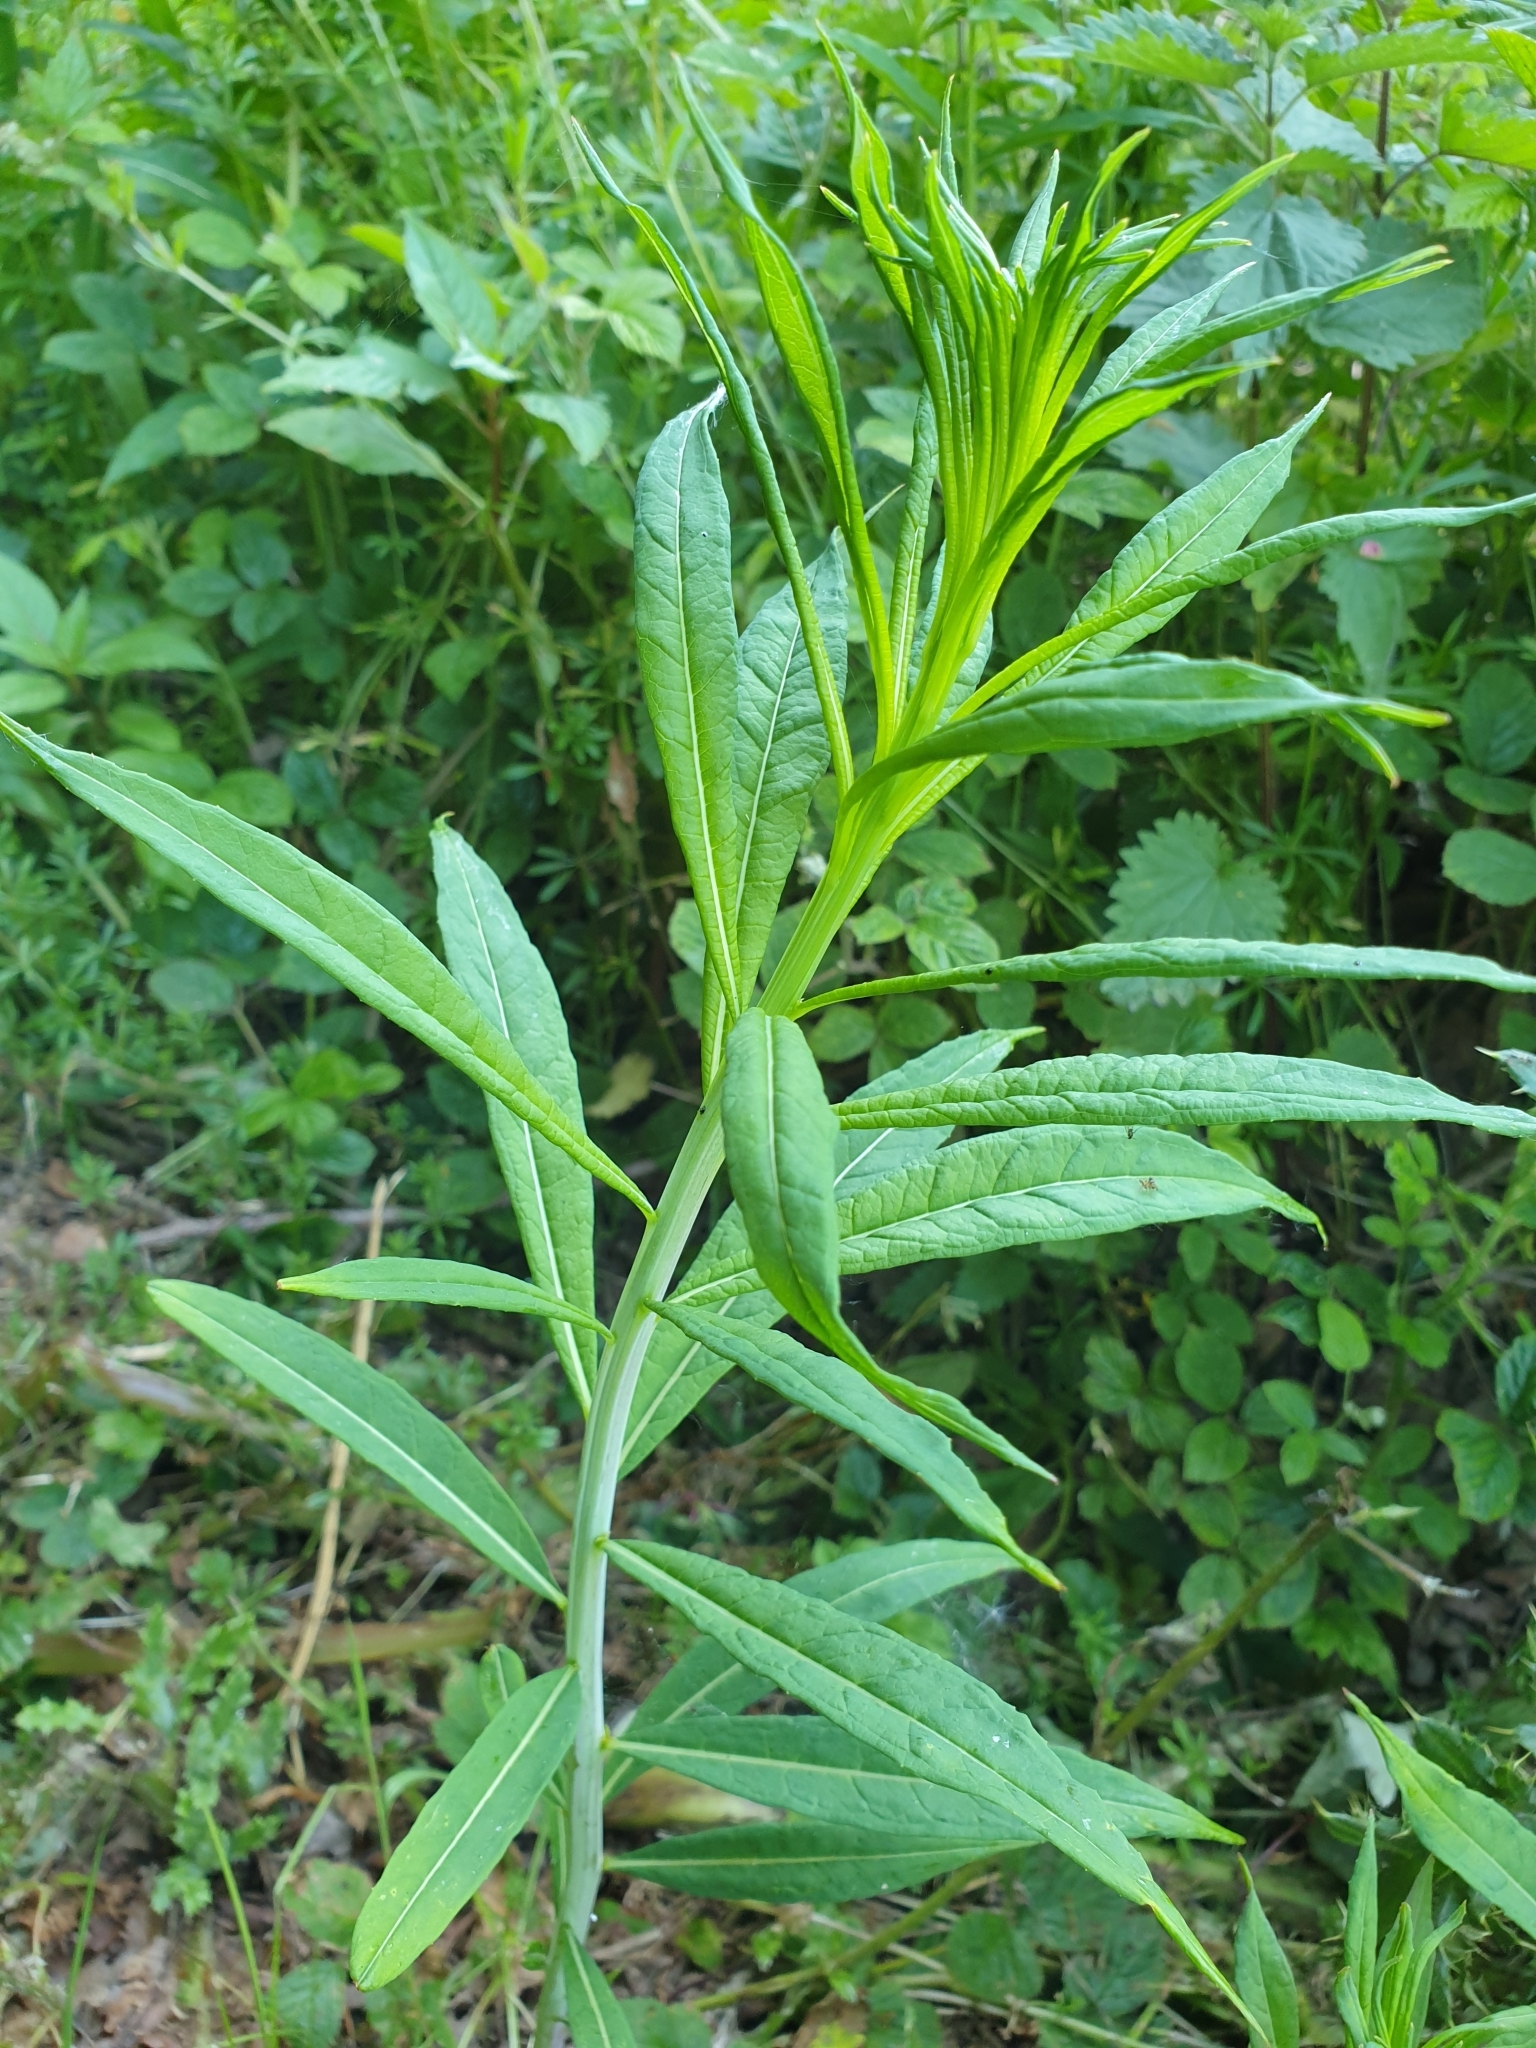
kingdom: Plantae
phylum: Tracheophyta
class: Magnoliopsida
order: Myrtales
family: Onagraceae
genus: Chamaenerion
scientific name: Chamaenerion angustifolium
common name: Fireweed
